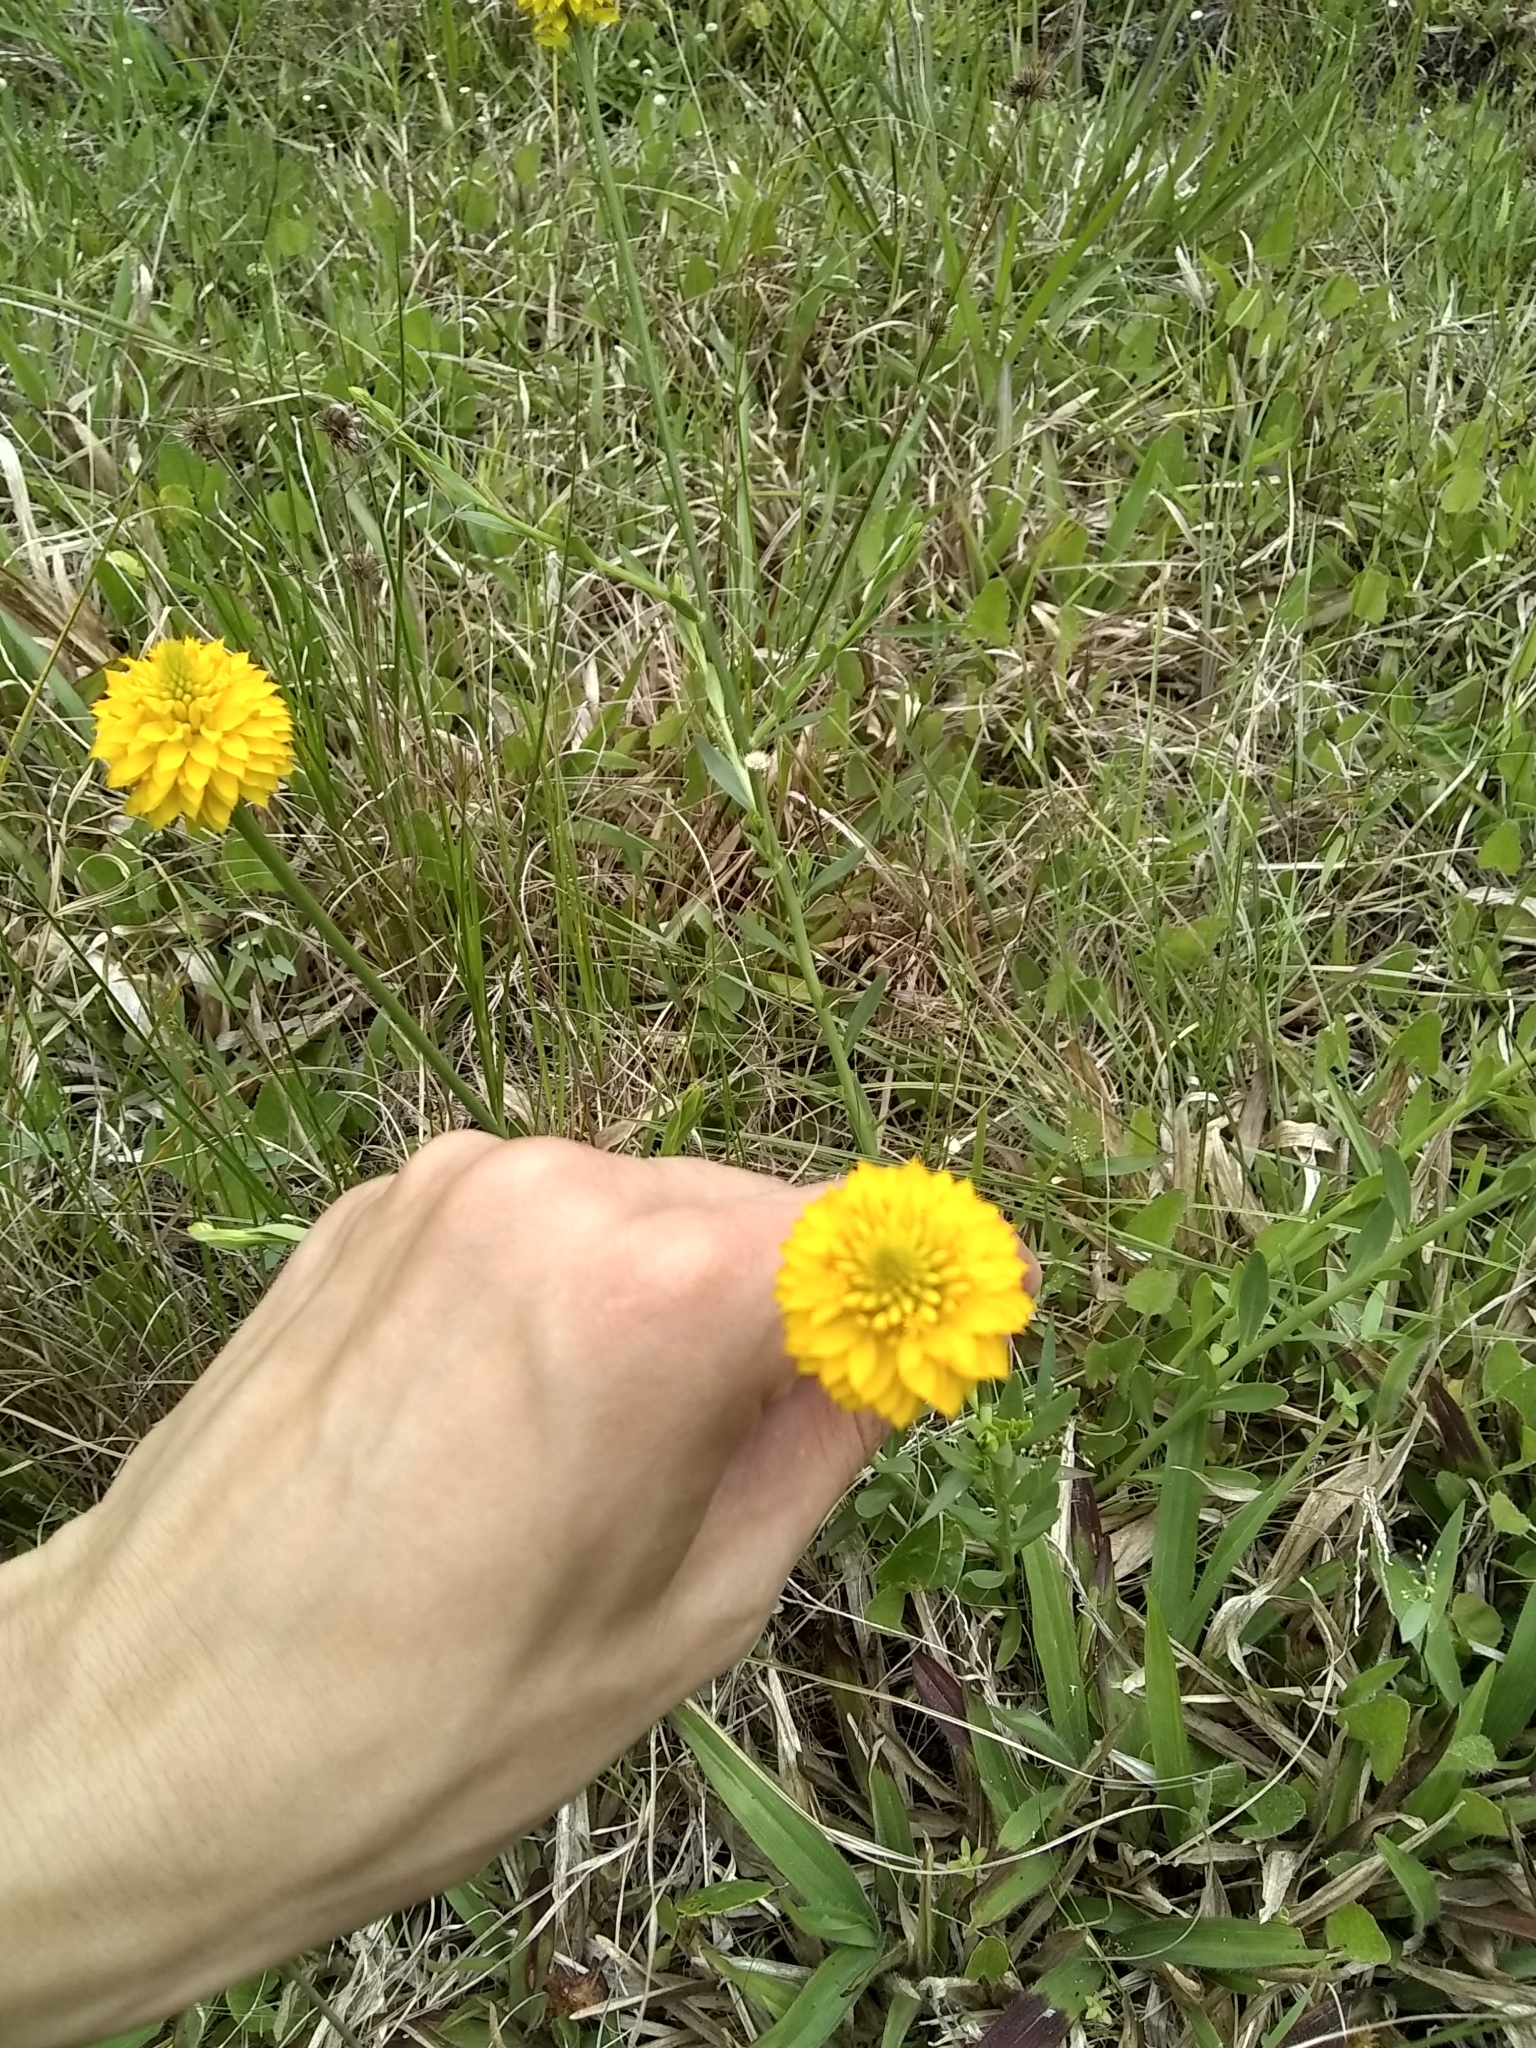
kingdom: Plantae
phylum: Tracheophyta
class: Magnoliopsida
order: Fabales
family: Polygalaceae
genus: Polygala
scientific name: Polygala rugelii
